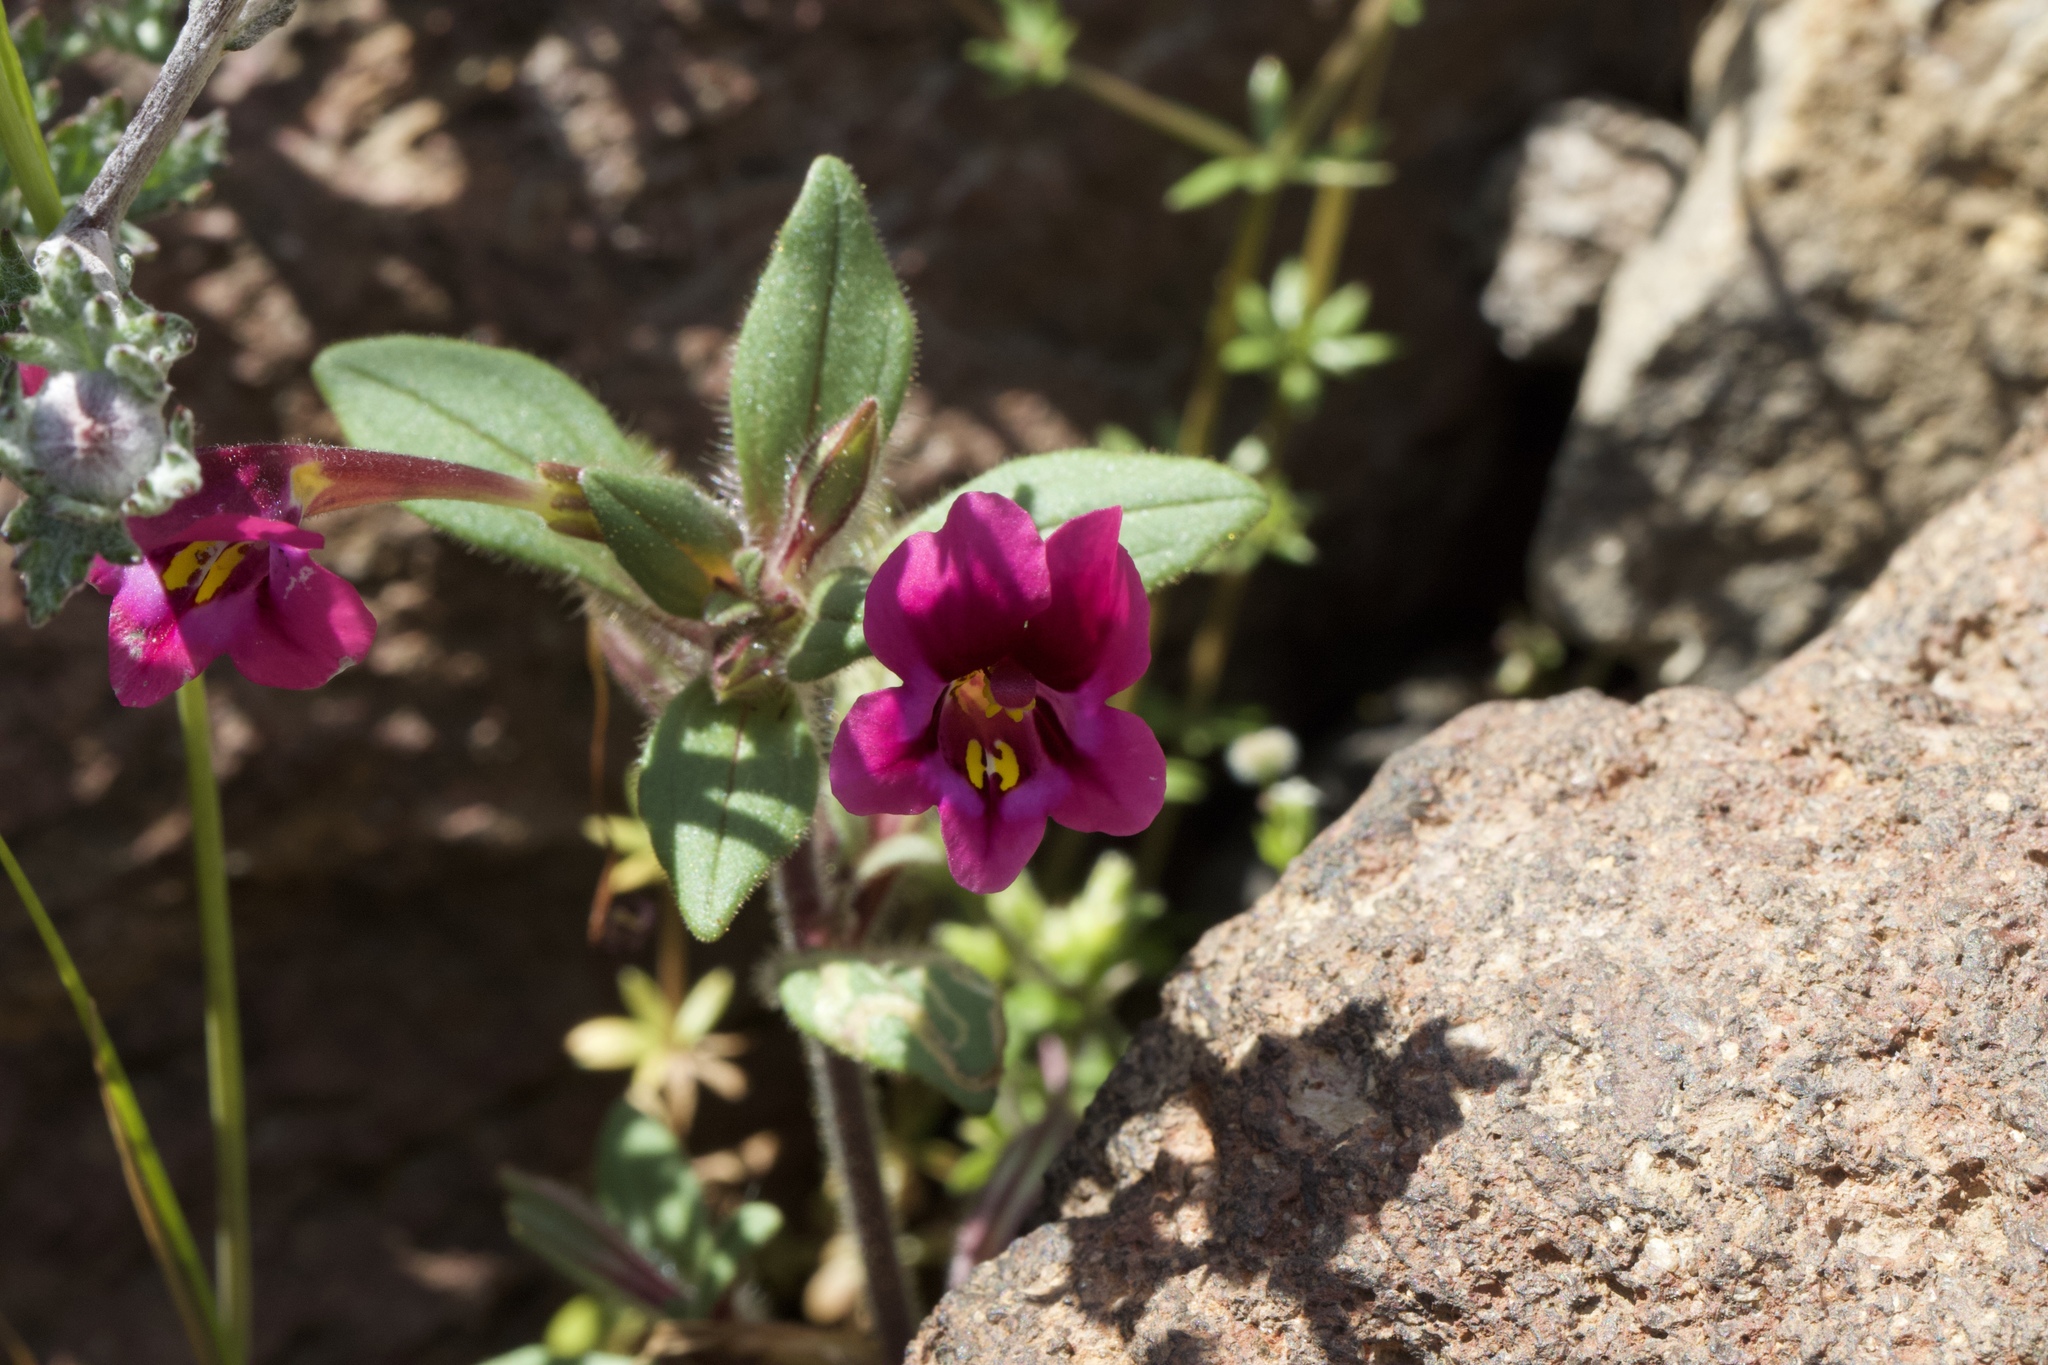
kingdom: Plantae
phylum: Tracheophyta
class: Magnoliopsida
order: Lamiales
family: Phrymaceae
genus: Diplacus
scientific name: Diplacus kelloggii
